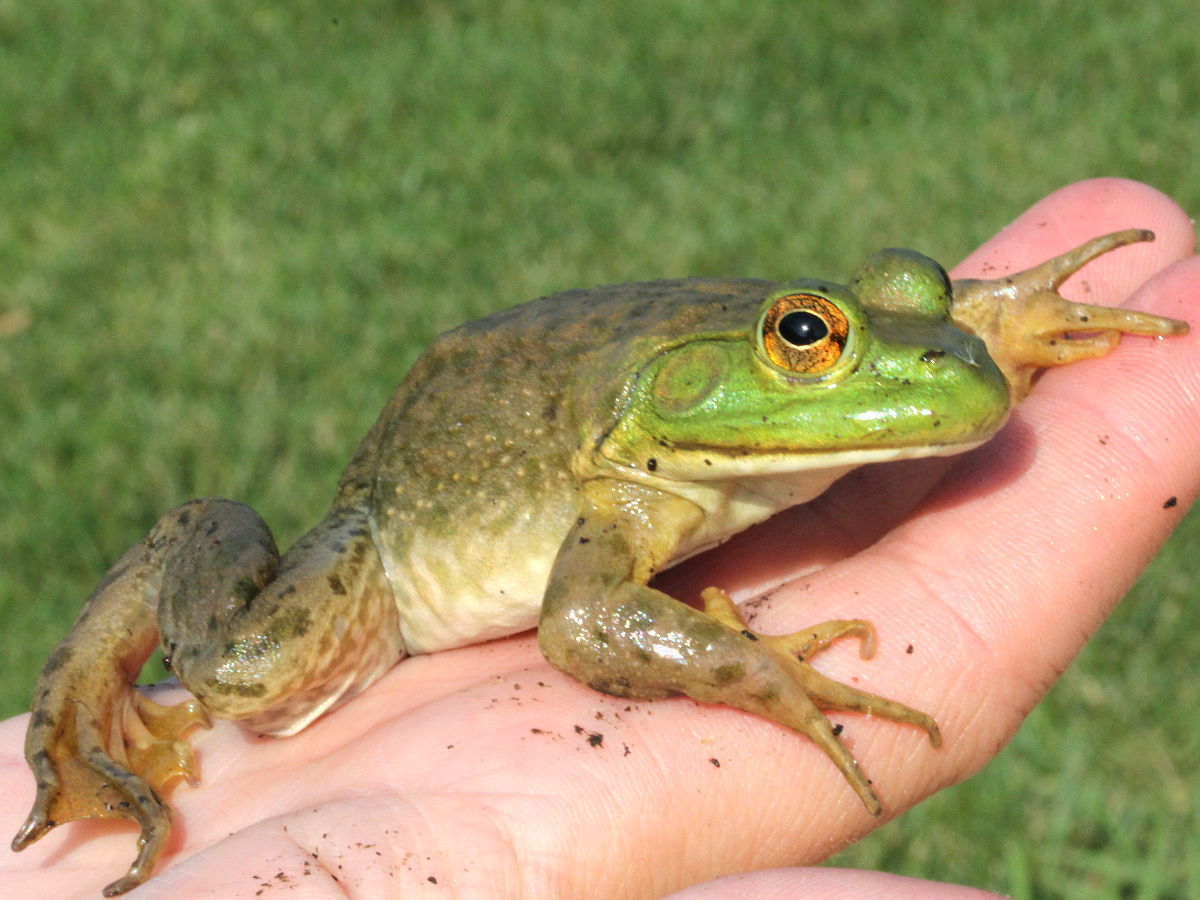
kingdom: Animalia
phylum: Chordata
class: Amphibia
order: Anura
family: Ranidae
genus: Lithobates
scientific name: Lithobates catesbeianus
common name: American bullfrog
